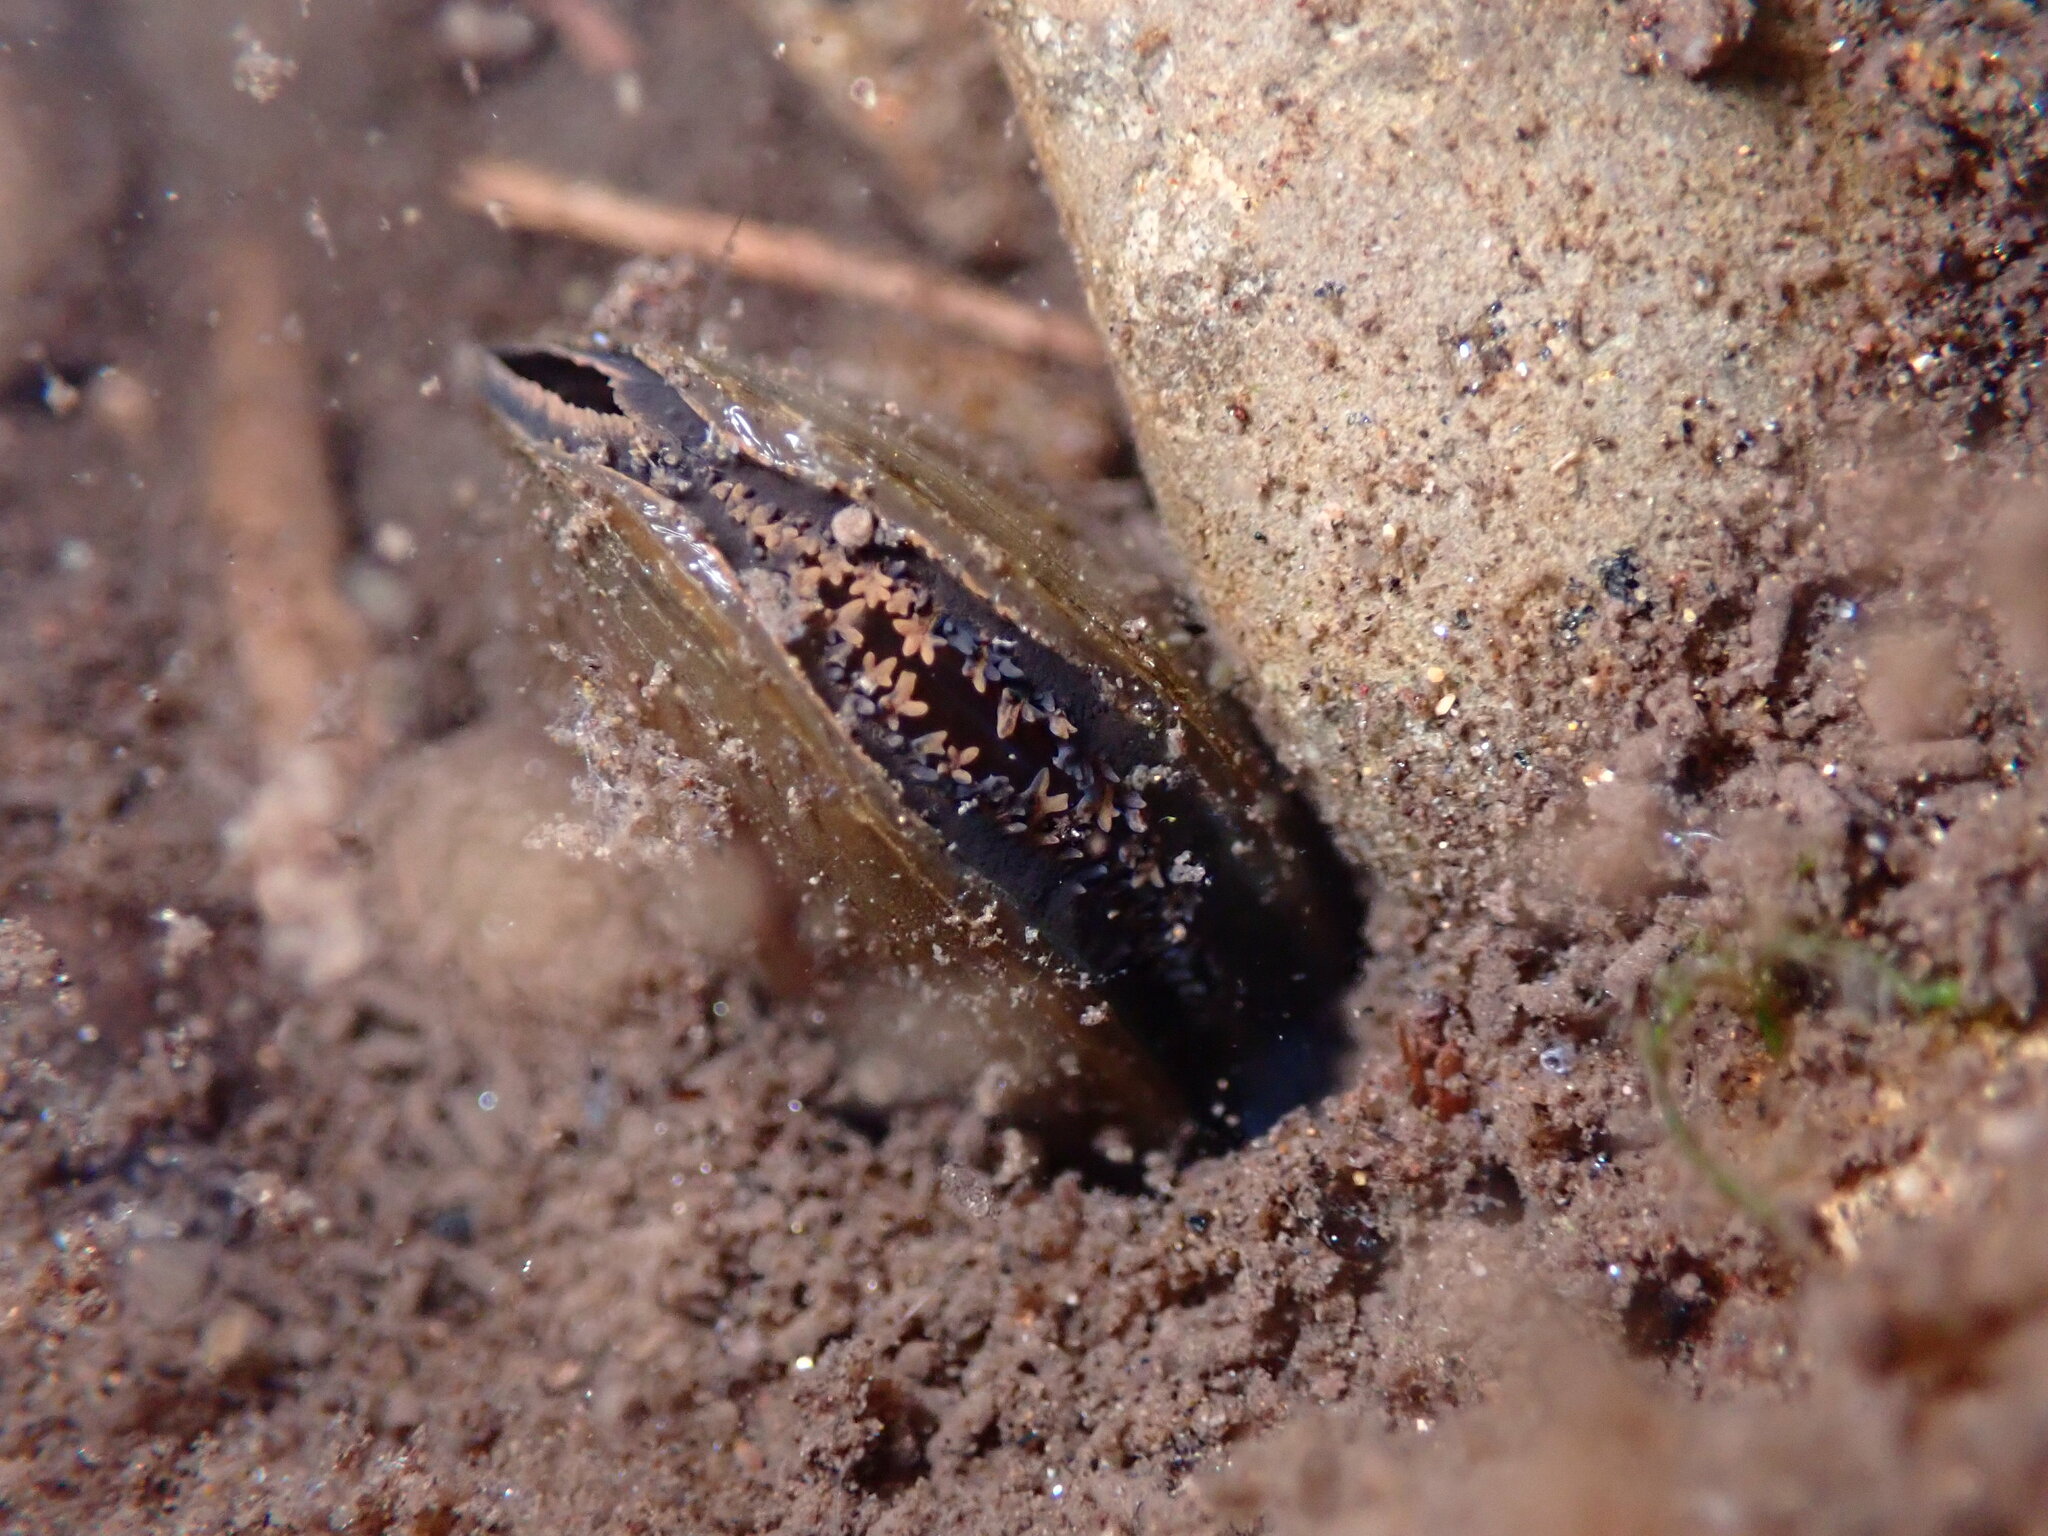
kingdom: Animalia
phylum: Mollusca
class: Bivalvia
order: Unionida
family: Margaritiferidae
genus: Margaritifera
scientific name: Margaritifera falcata
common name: Western pearlshell
